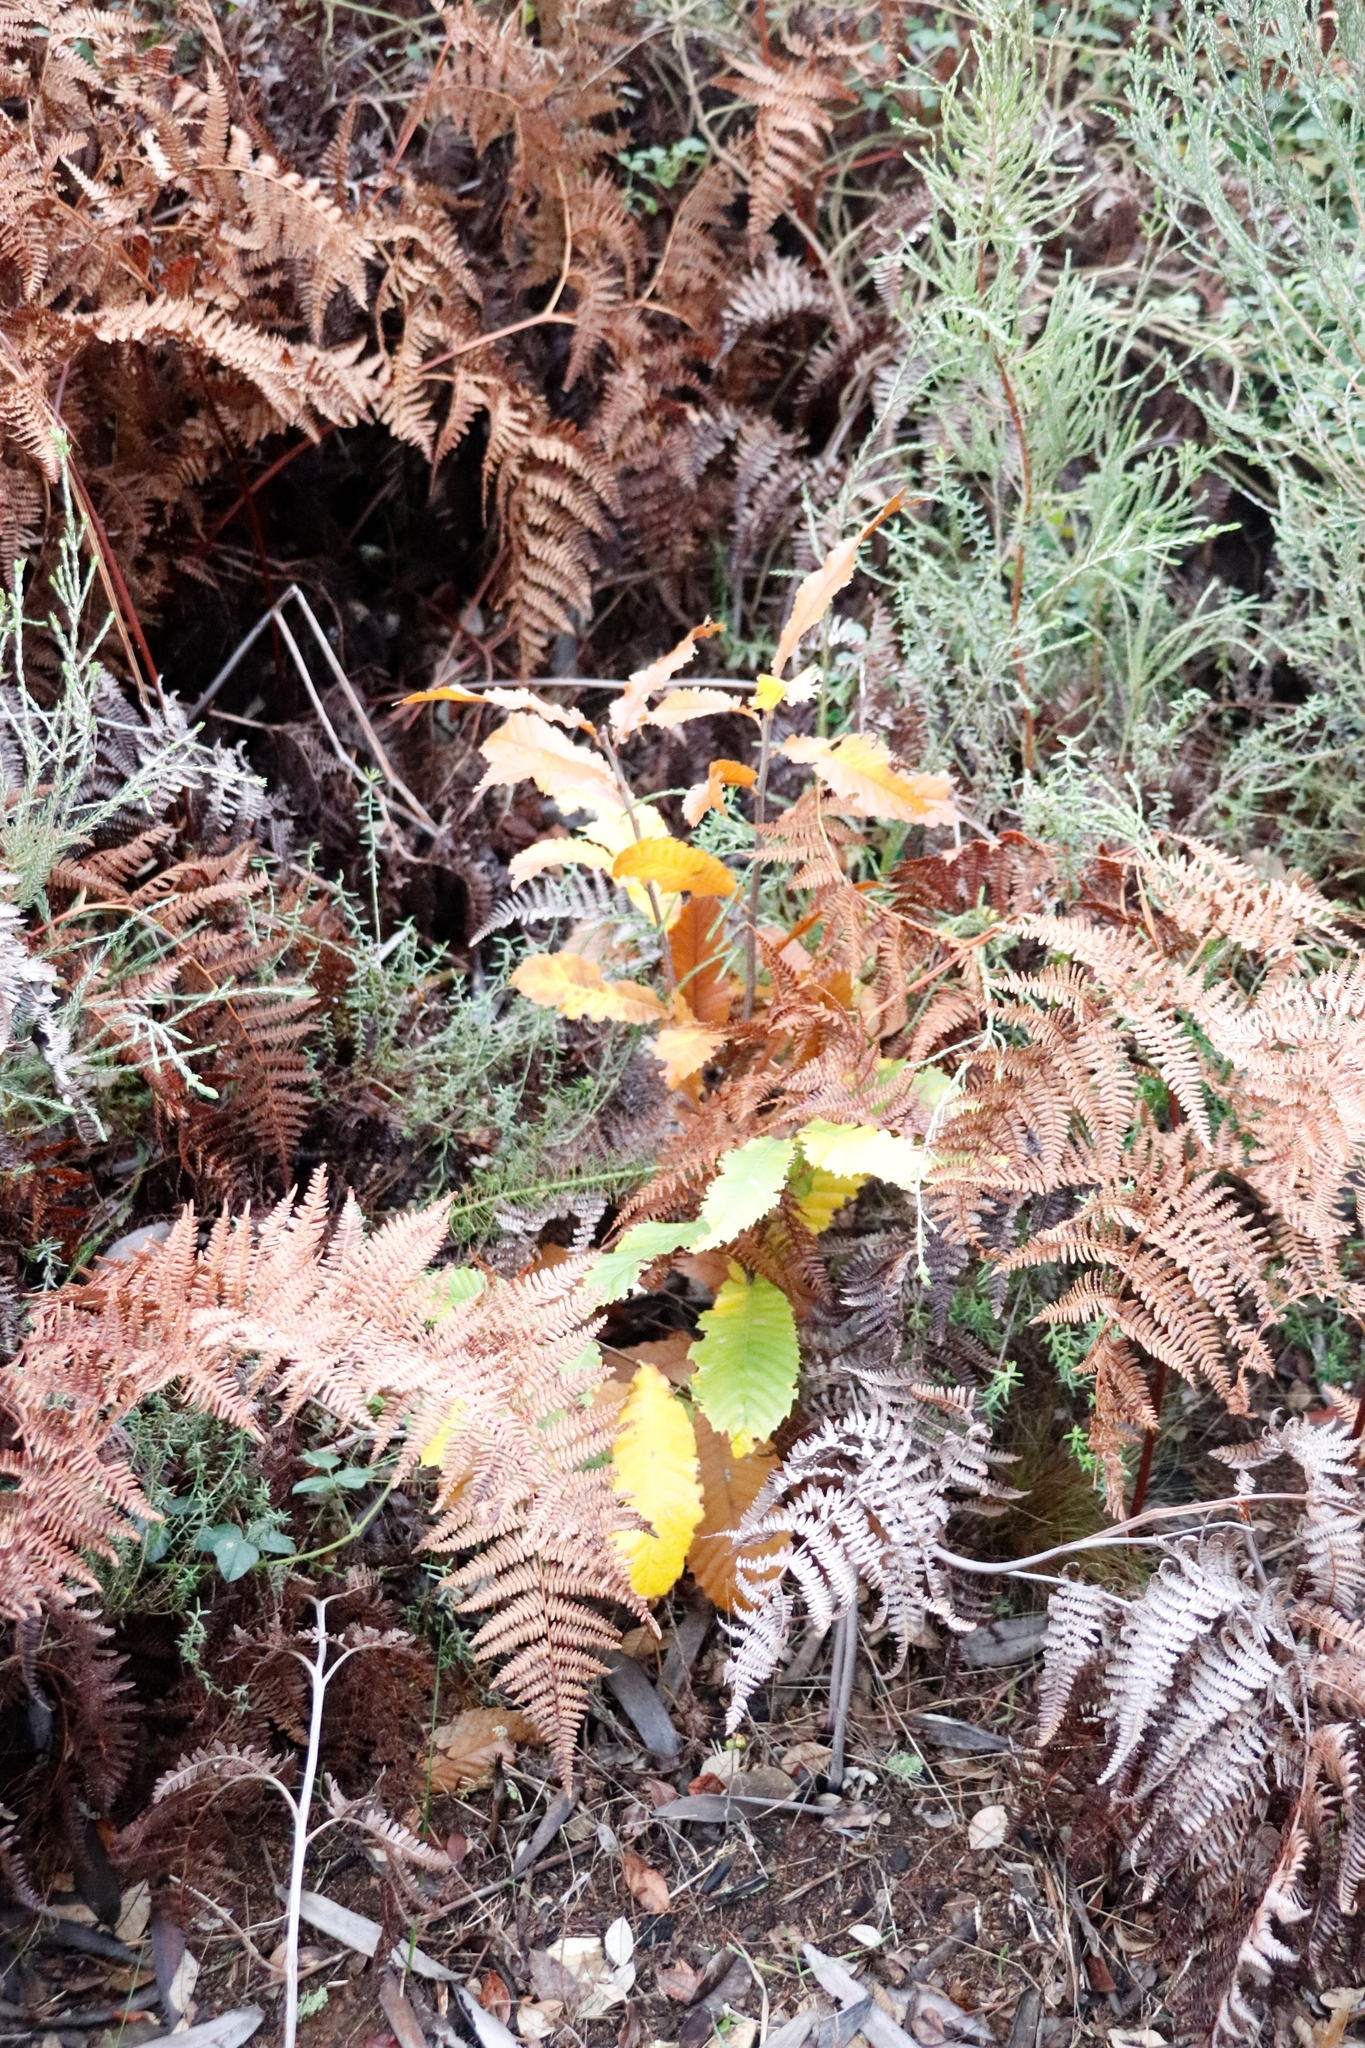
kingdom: Plantae
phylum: Tracheophyta
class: Magnoliopsida
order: Fagales
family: Fagaceae
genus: Castanea
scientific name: Castanea sativa
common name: Sweet chestnut
